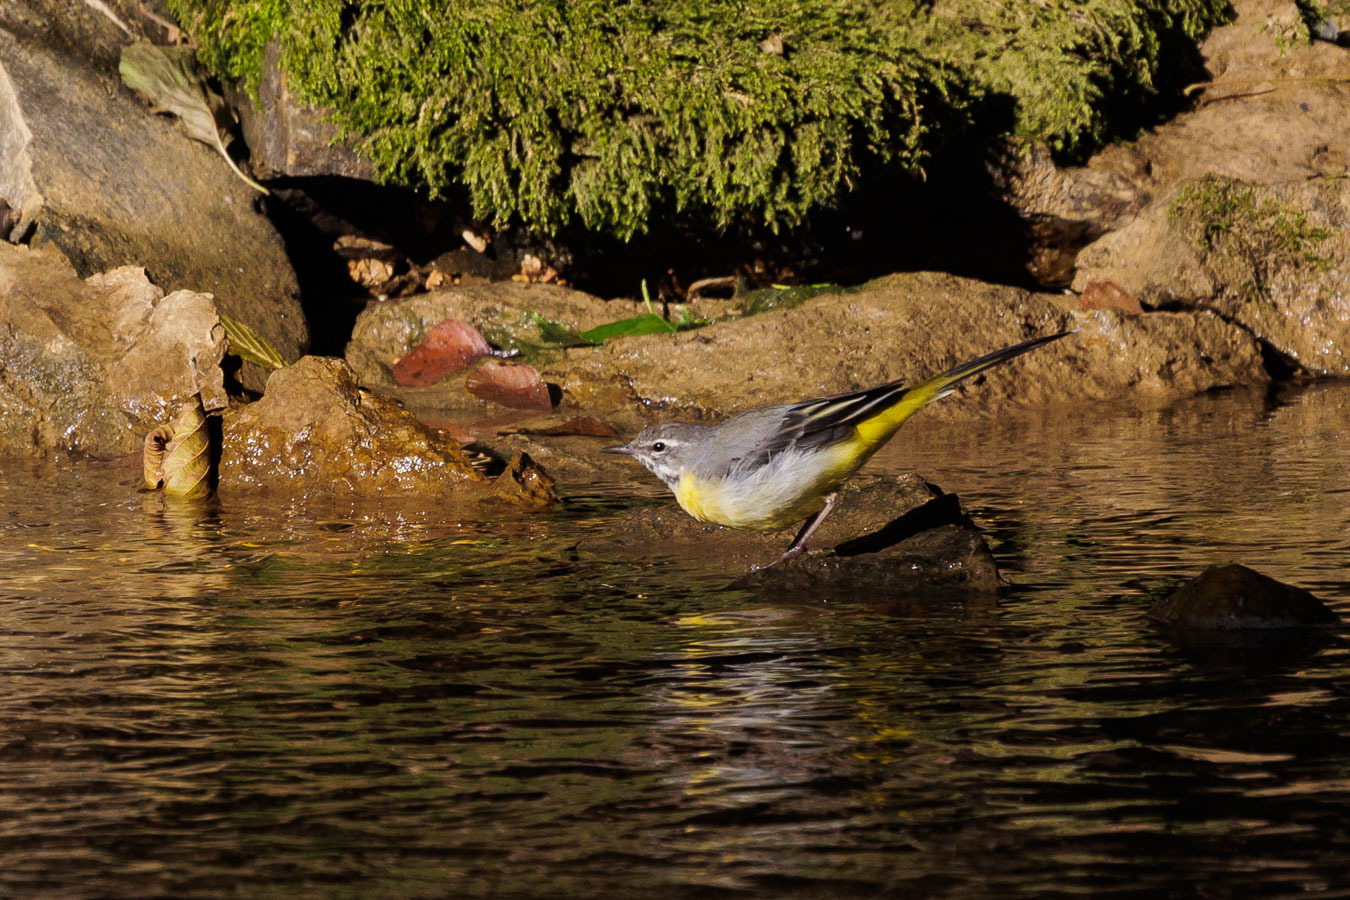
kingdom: Animalia
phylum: Chordata
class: Aves
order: Passeriformes
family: Motacillidae
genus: Motacilla
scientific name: Motacilla cinerea
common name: Grey wagtail
